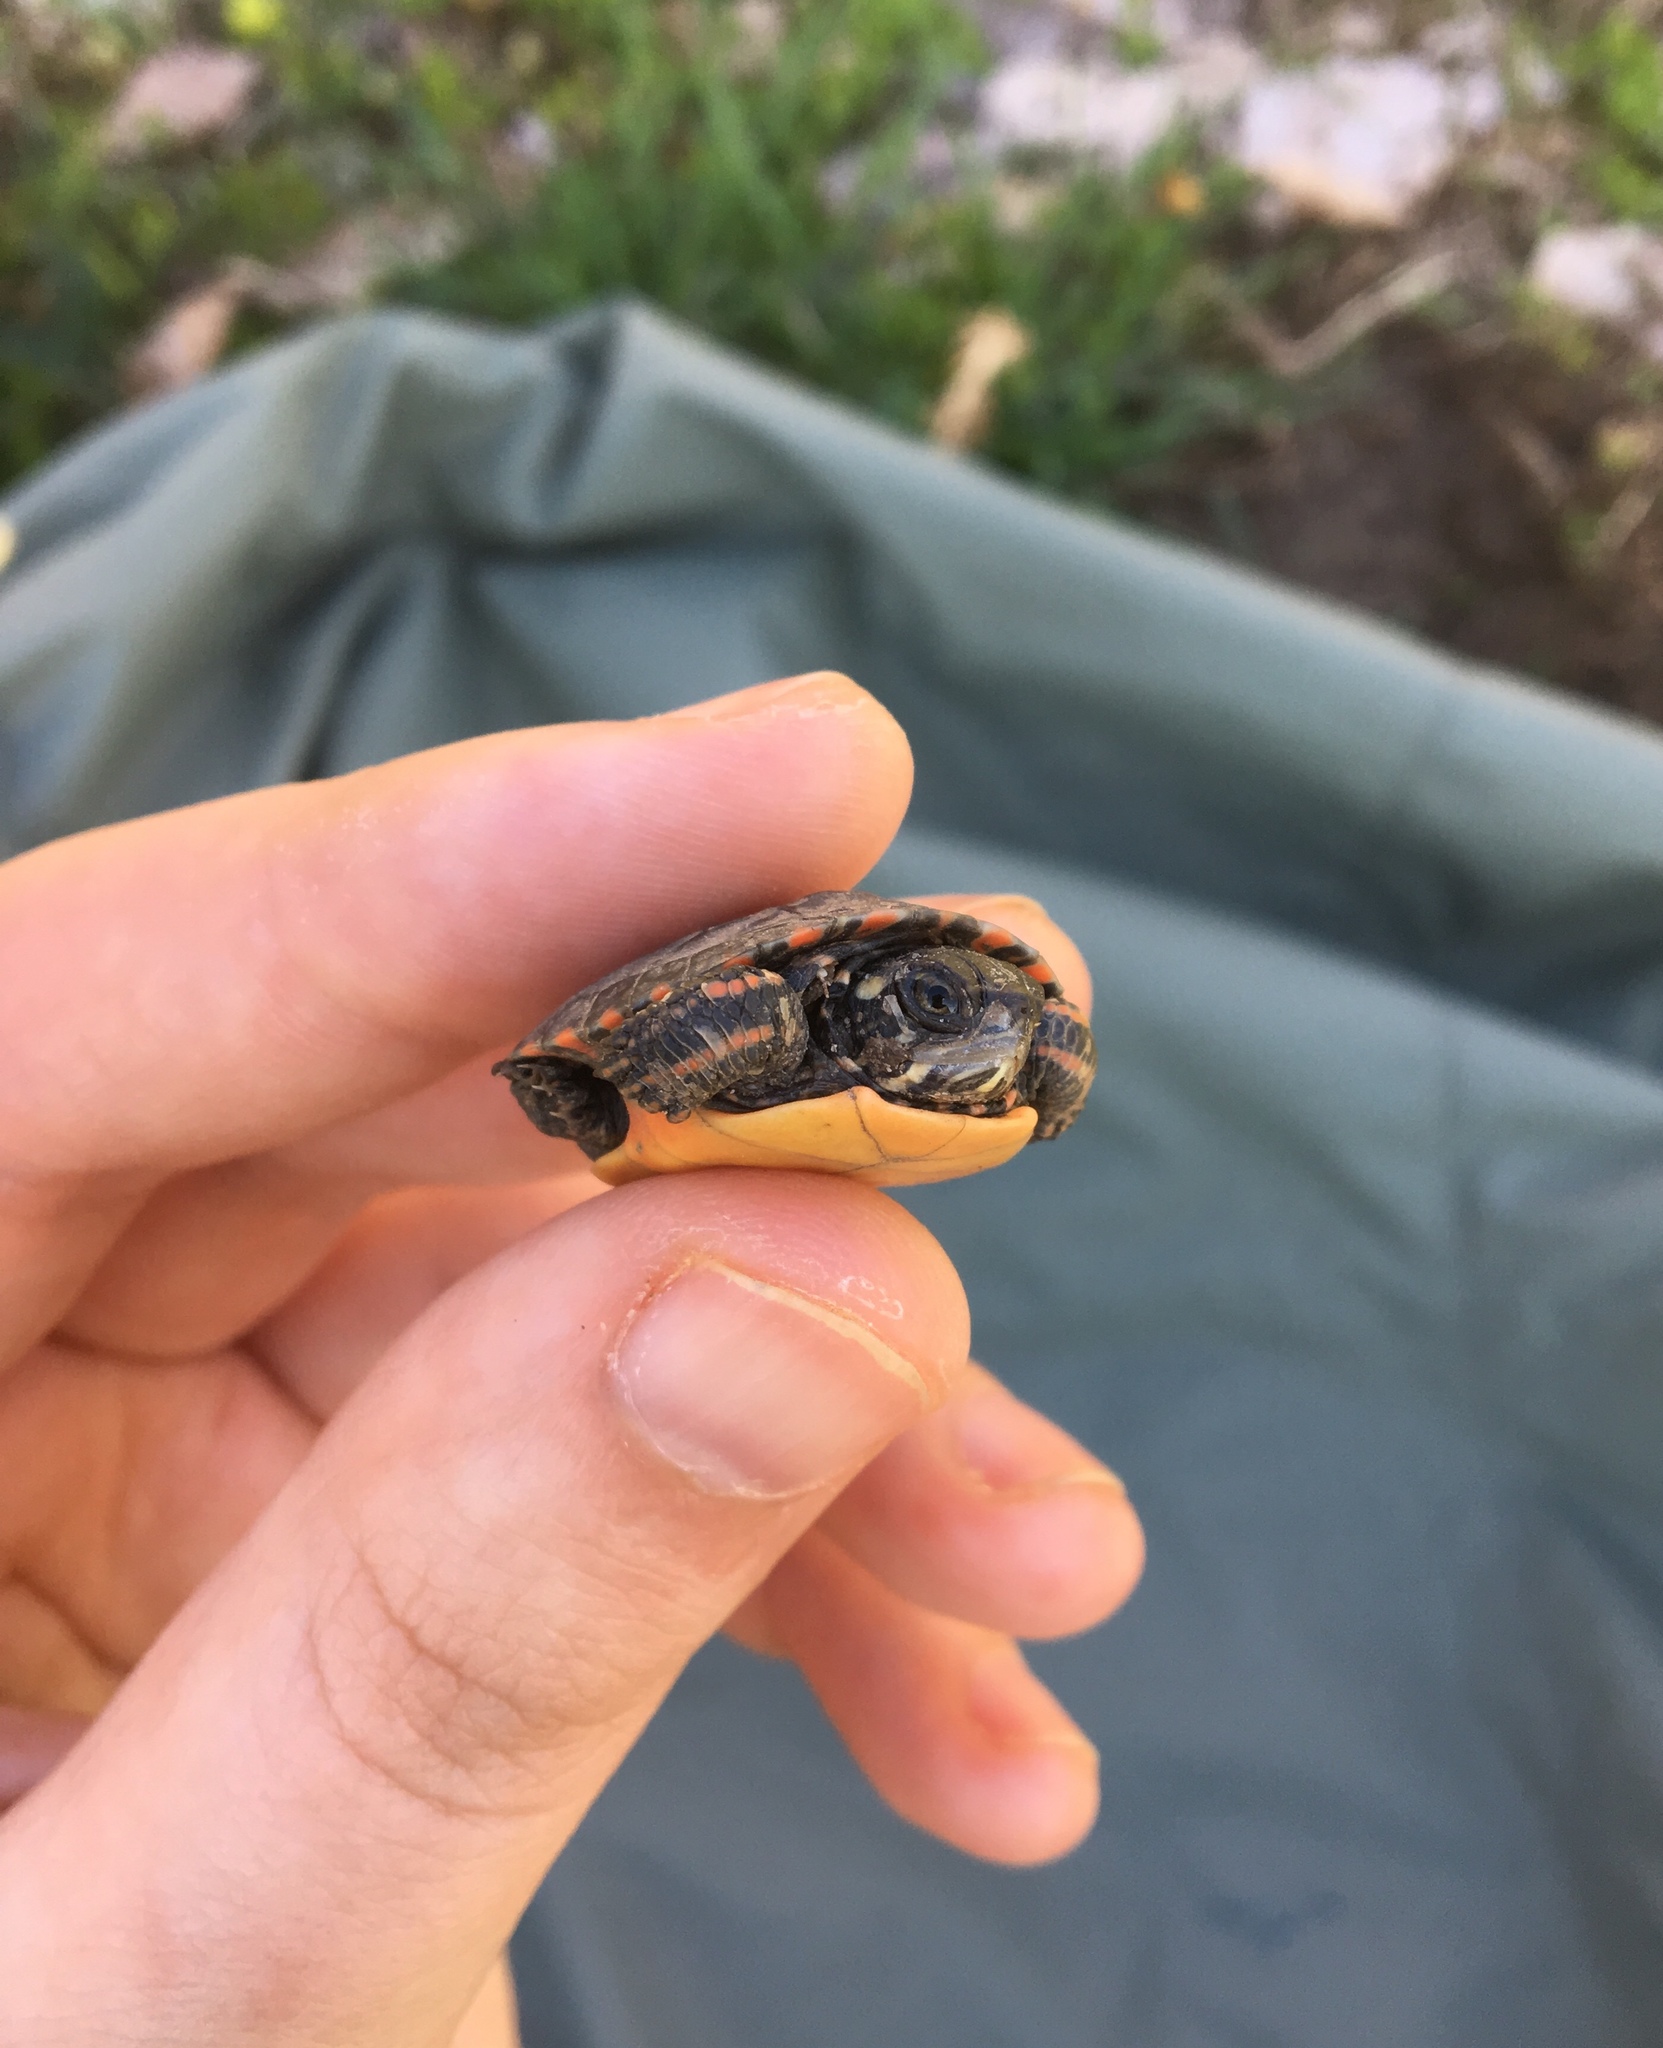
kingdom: Animalia
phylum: Chordata
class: Testudines
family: Emydidae
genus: Chrysemys
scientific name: Chrysemys picta
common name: Painted turtle
